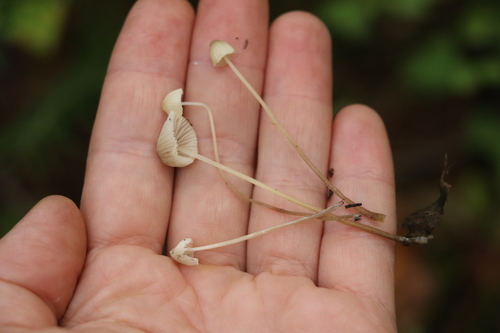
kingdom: Fungi
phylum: Basidiomycota
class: Agaricomycetes
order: Agaricales
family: Mycenaceae
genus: Mycena
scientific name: Mycena citrinomarginata
